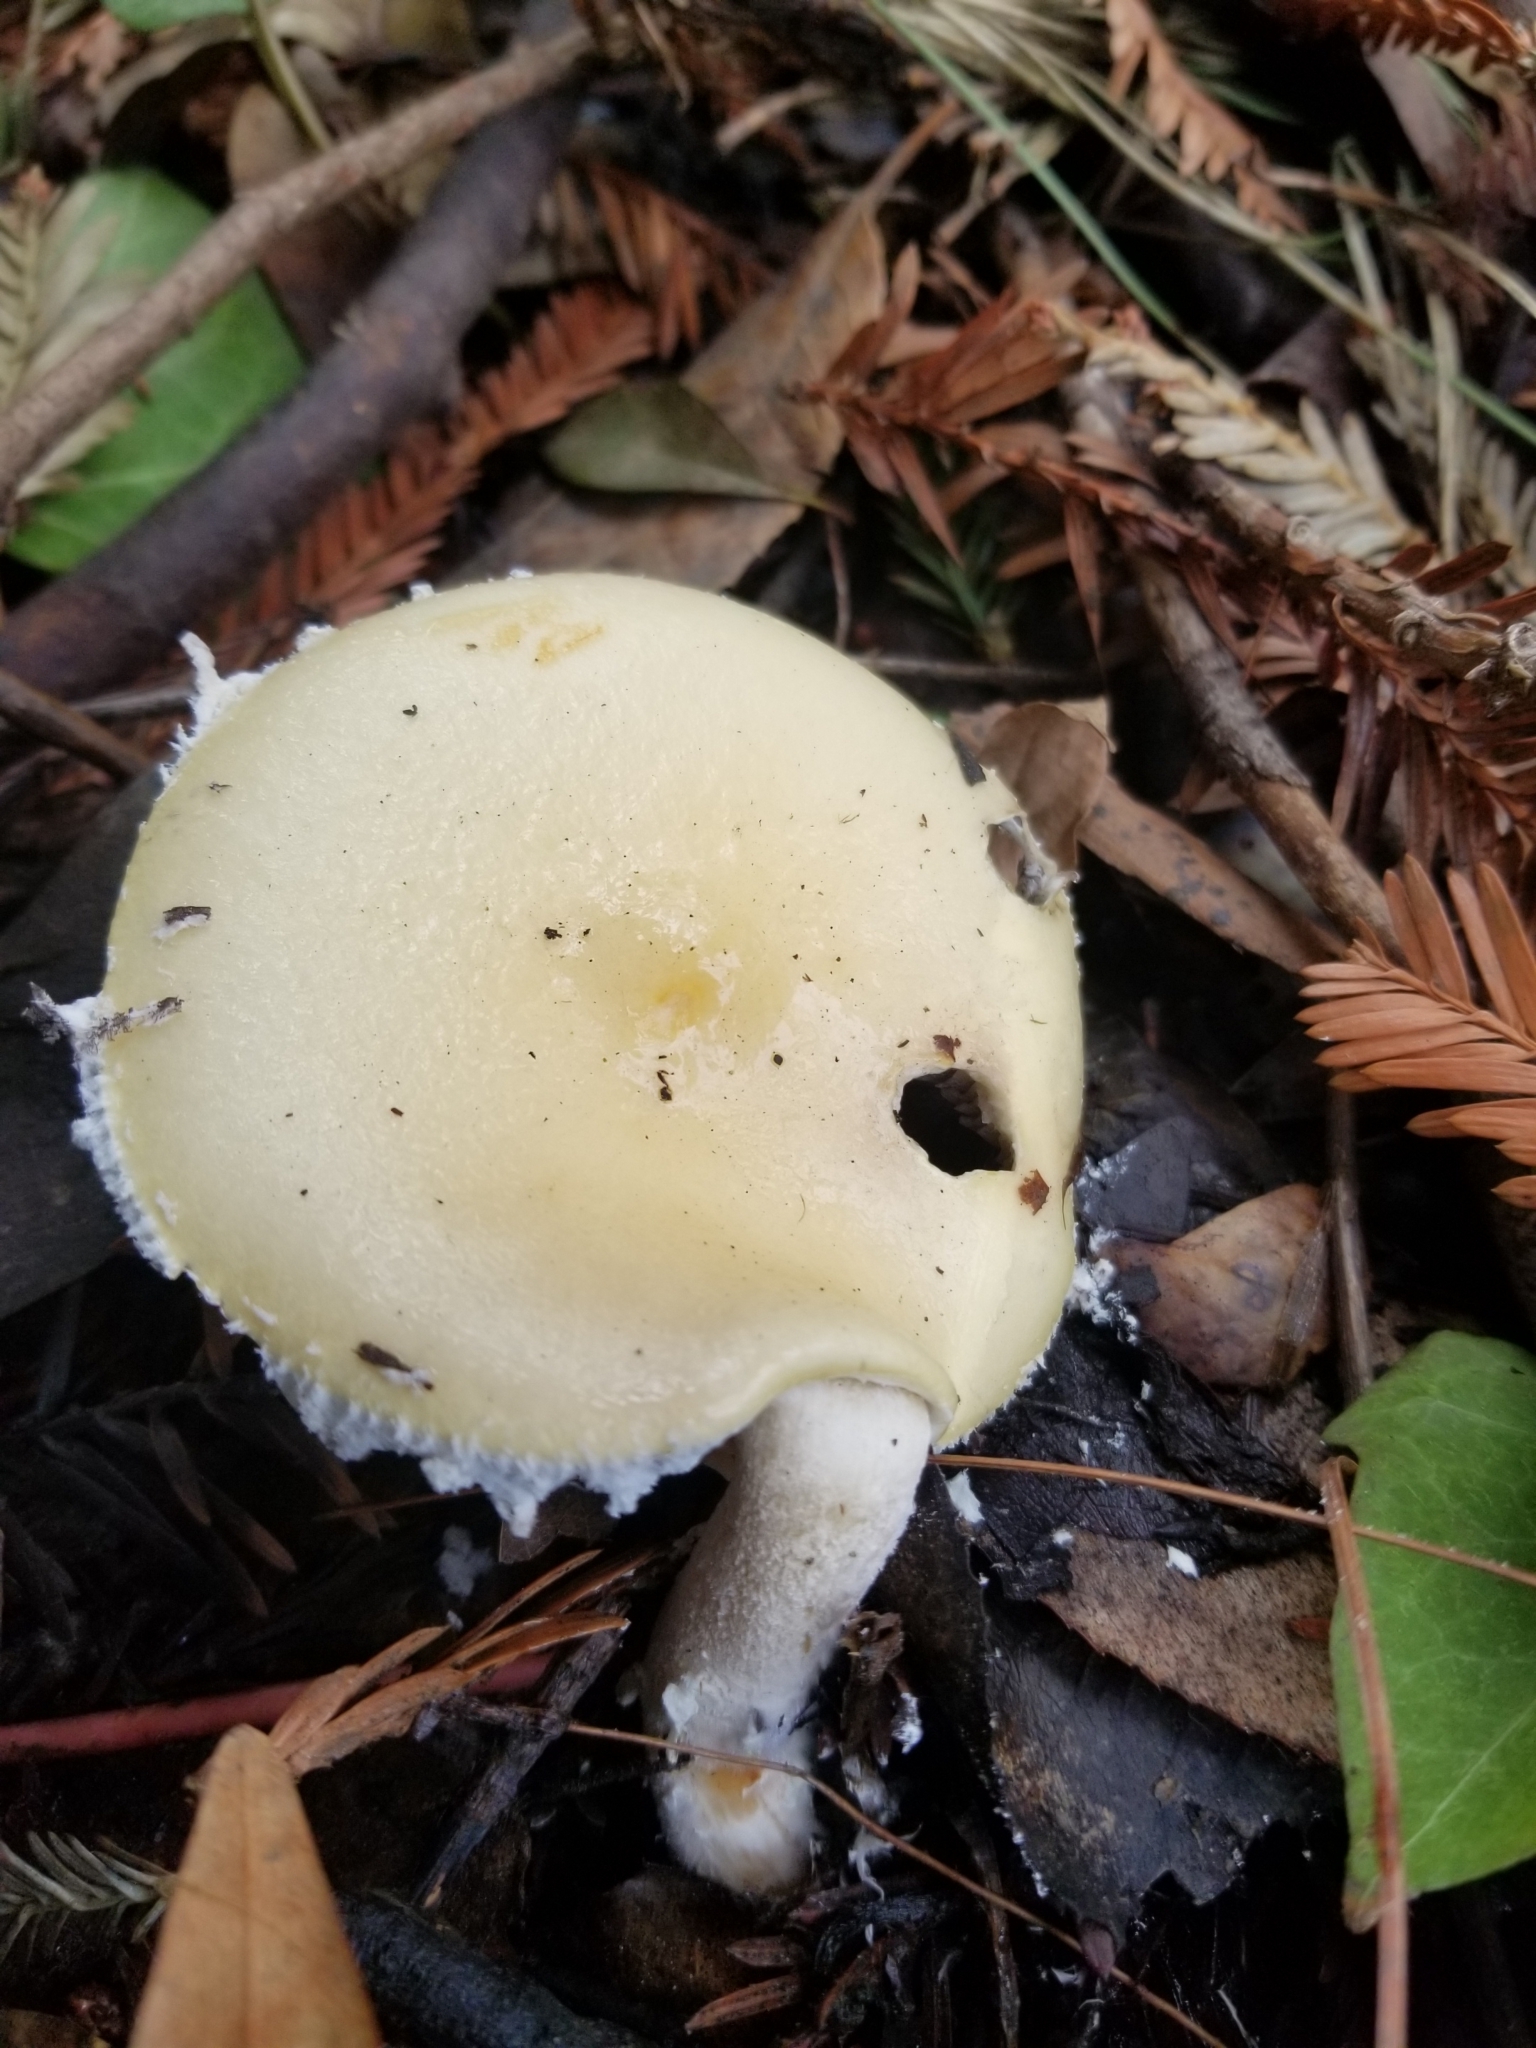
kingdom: Fungi
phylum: Basidiomycota
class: Agaricomycetes
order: Agaricales
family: Strophariaceae
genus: Stropharia
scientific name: Stropharia ambigua
